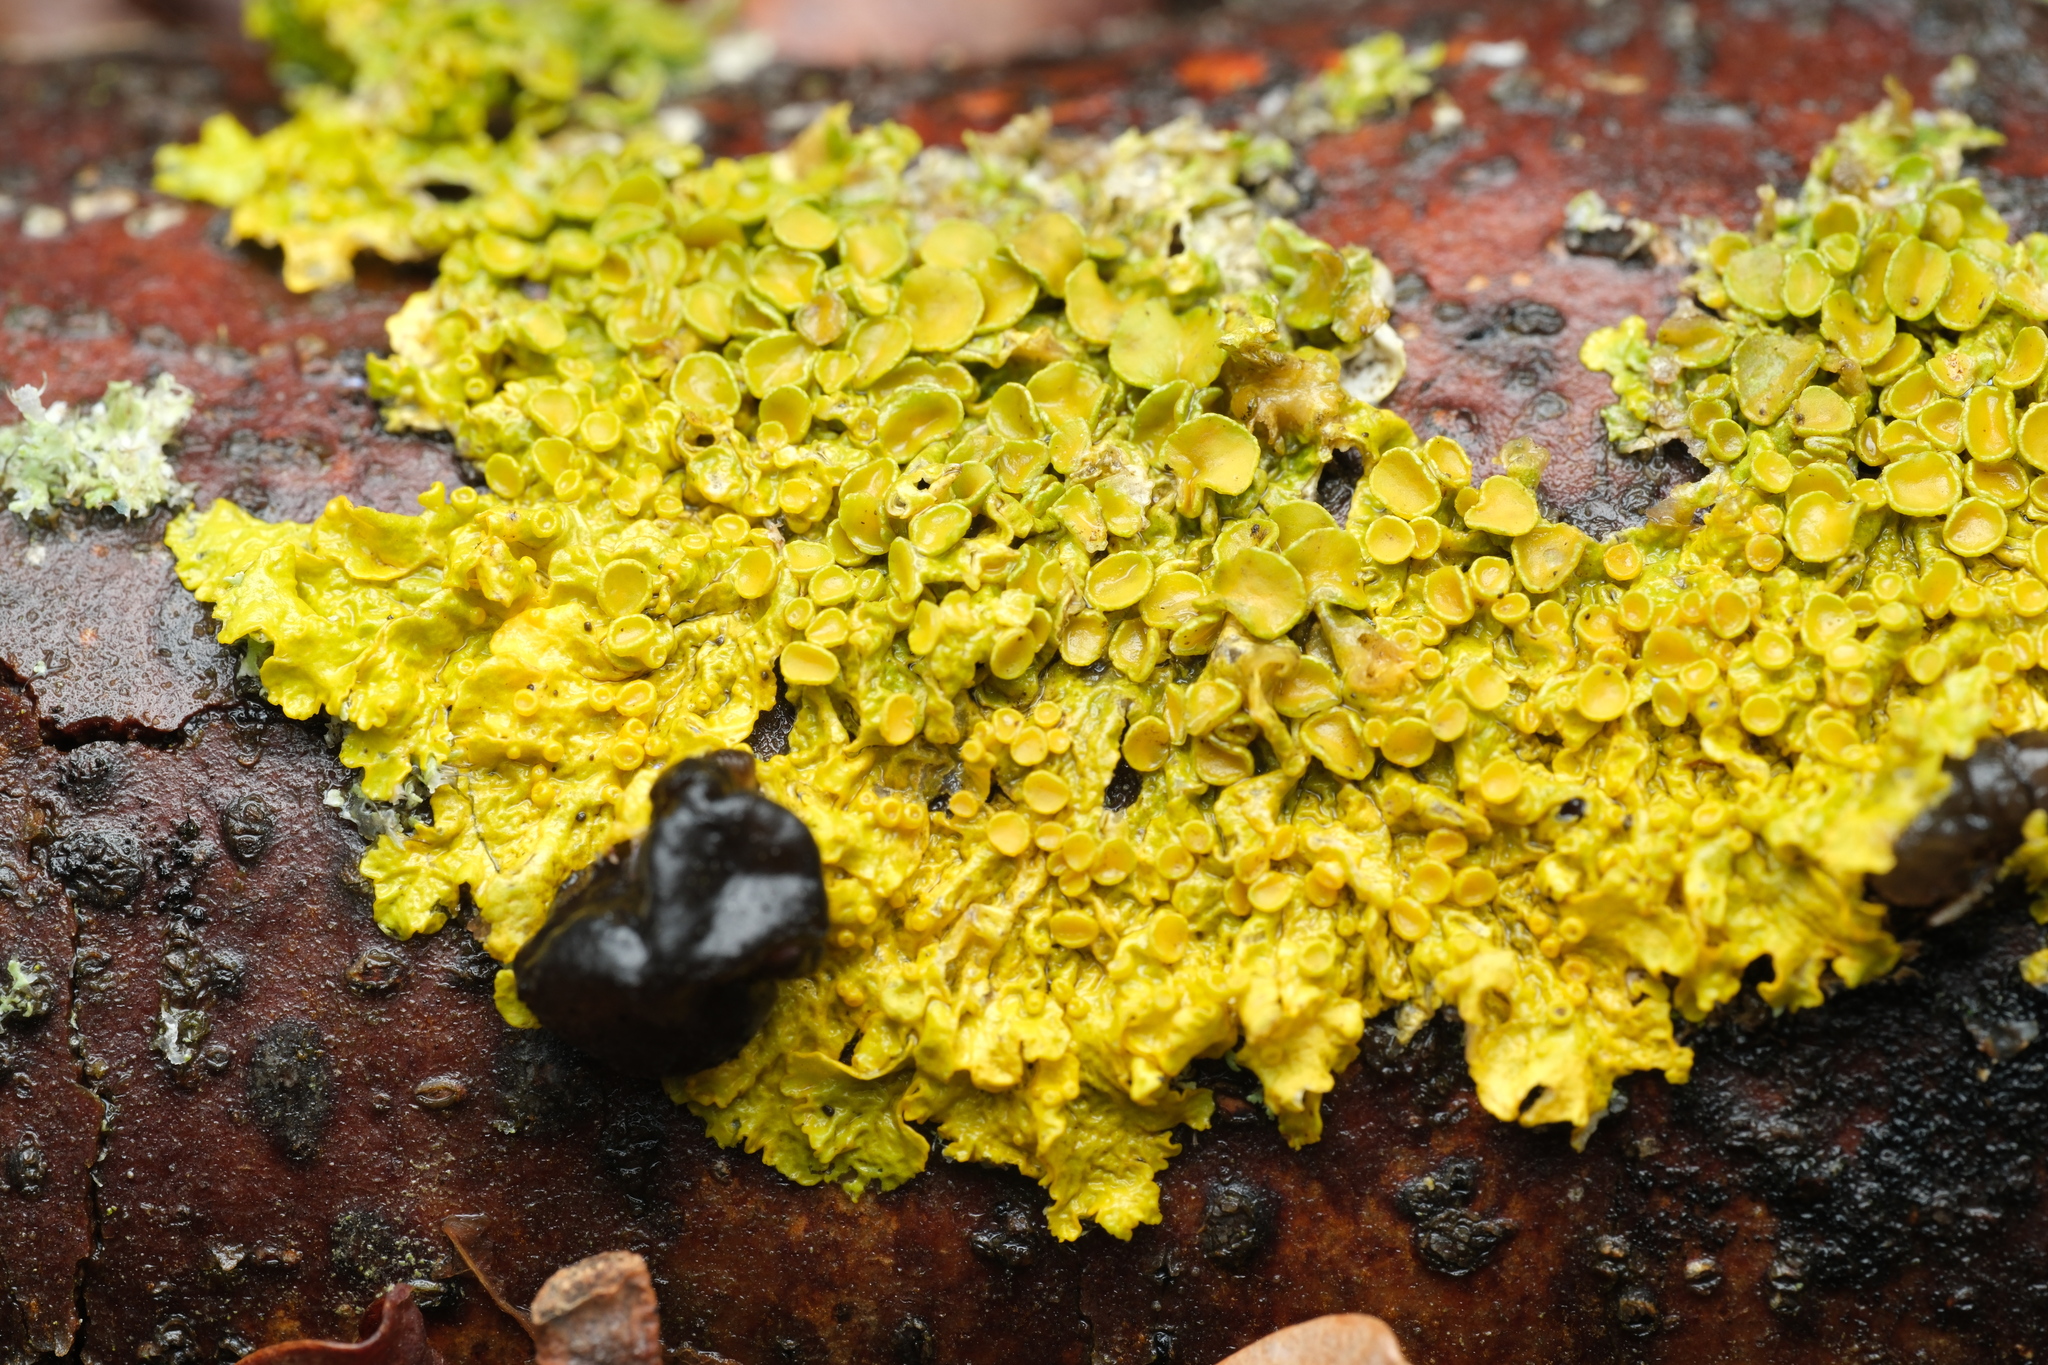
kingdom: Fungi
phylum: Ascomycota
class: Lecanoromycetes
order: Teloschistales
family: Teloschistaceae
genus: Xanthoria
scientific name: Xanthoria parietina
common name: Common orange lichen
